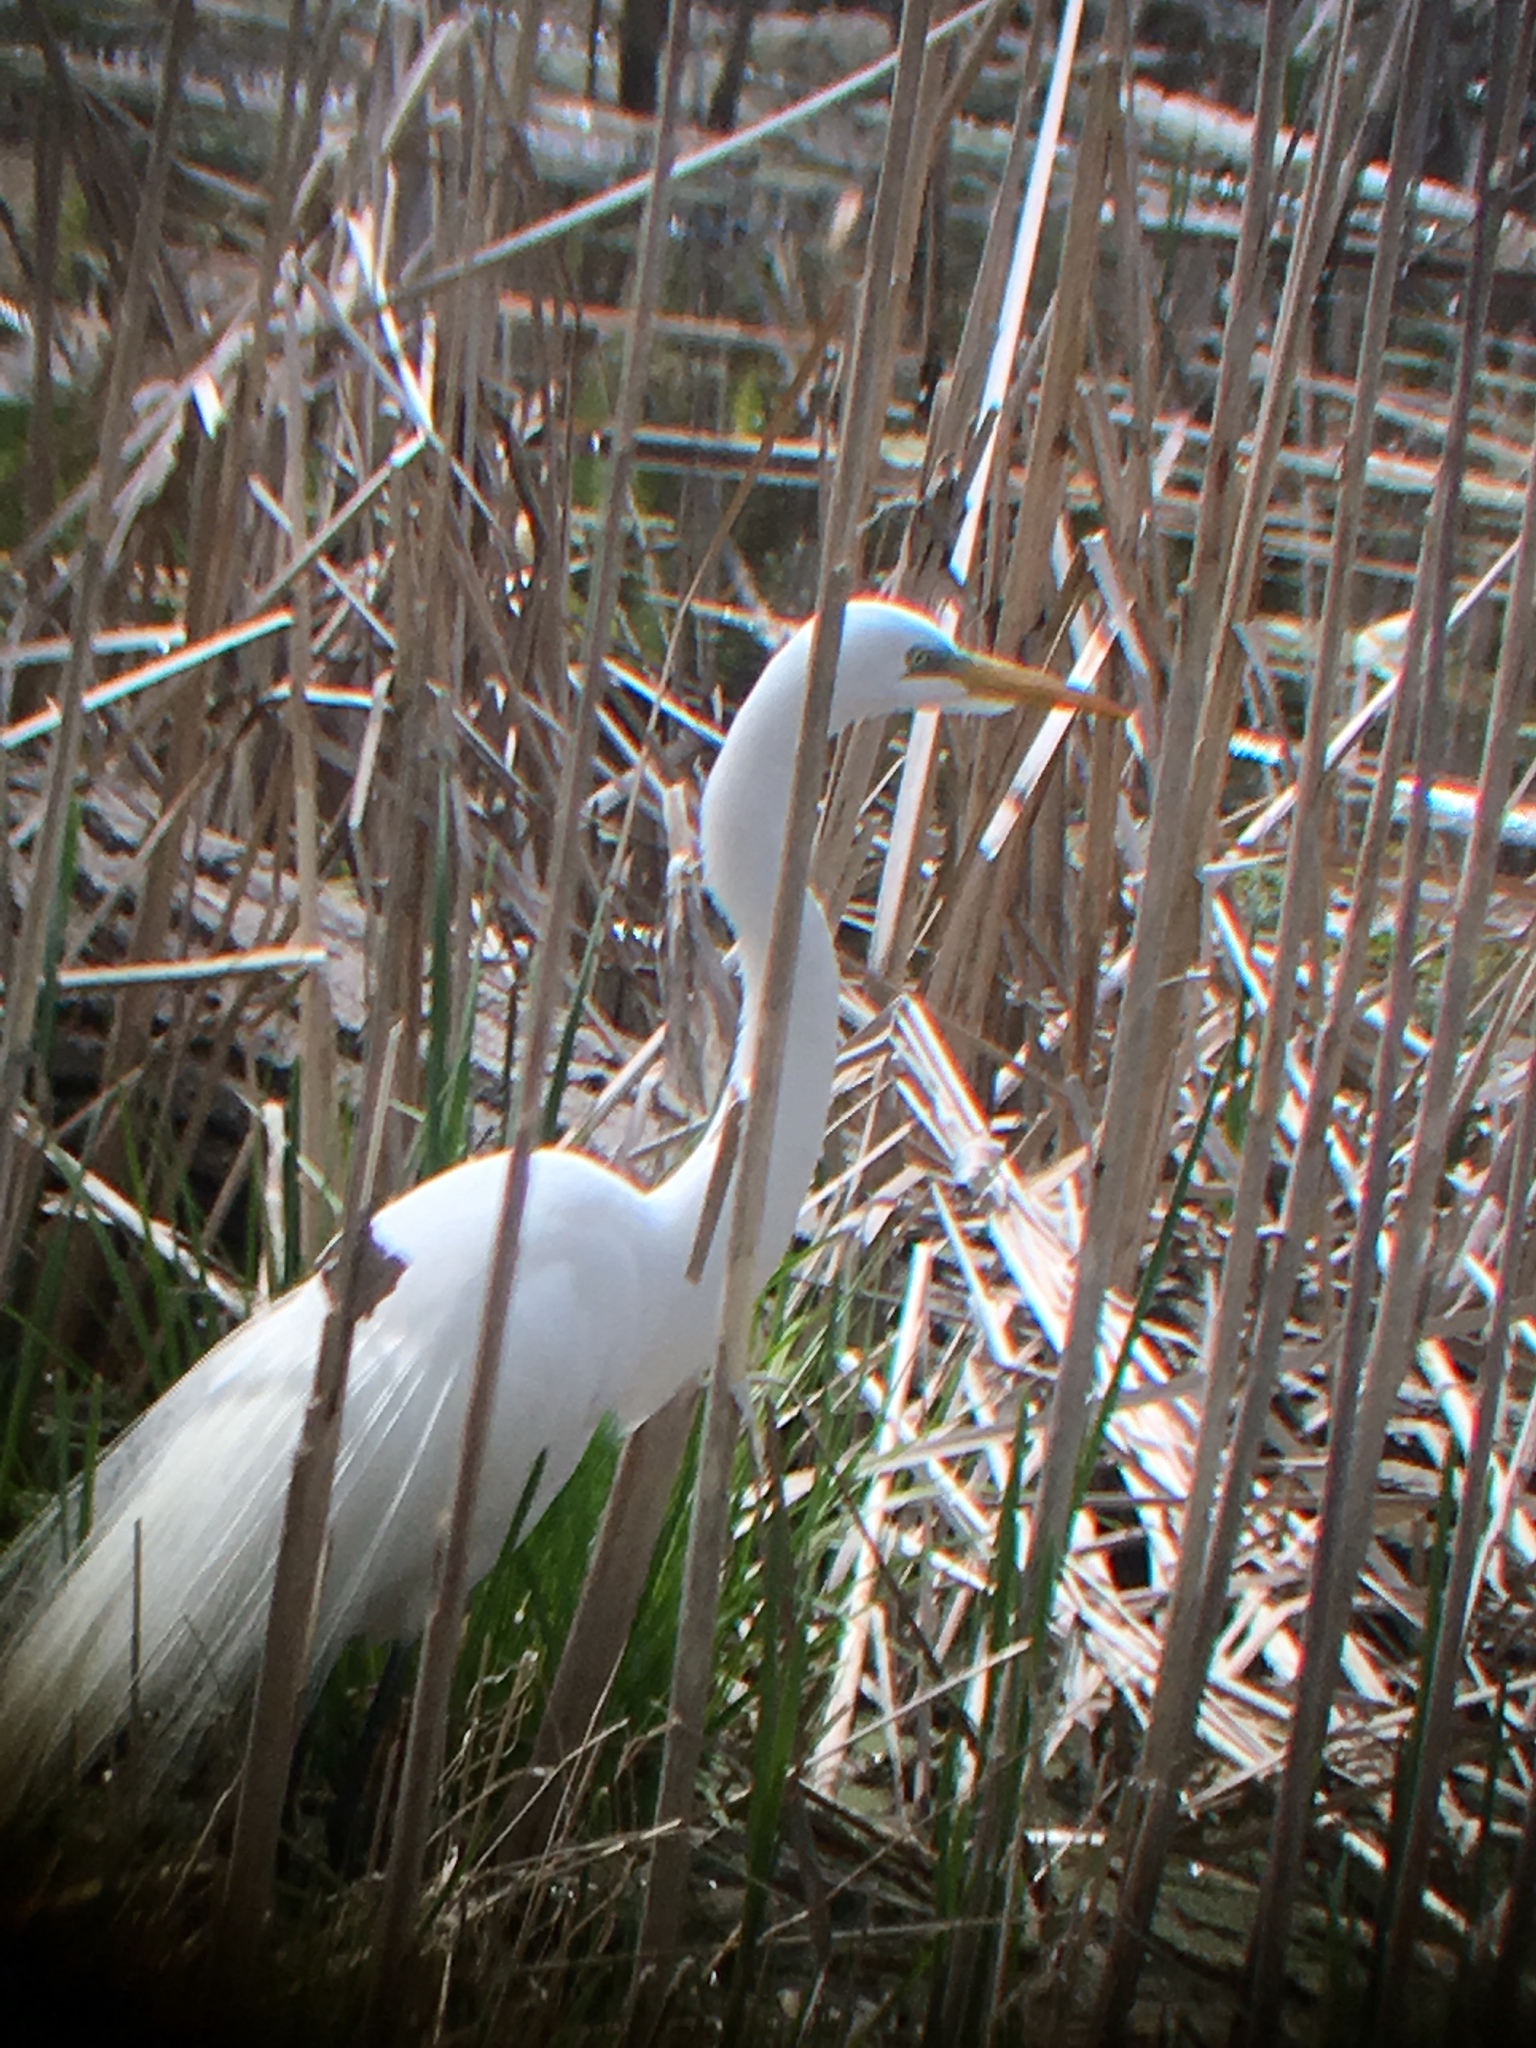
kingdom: Animalia
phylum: Chordata
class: Aves
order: Pelecaniformes
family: Ardeidae
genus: Ardea
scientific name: Ardea alba
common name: Great egret
